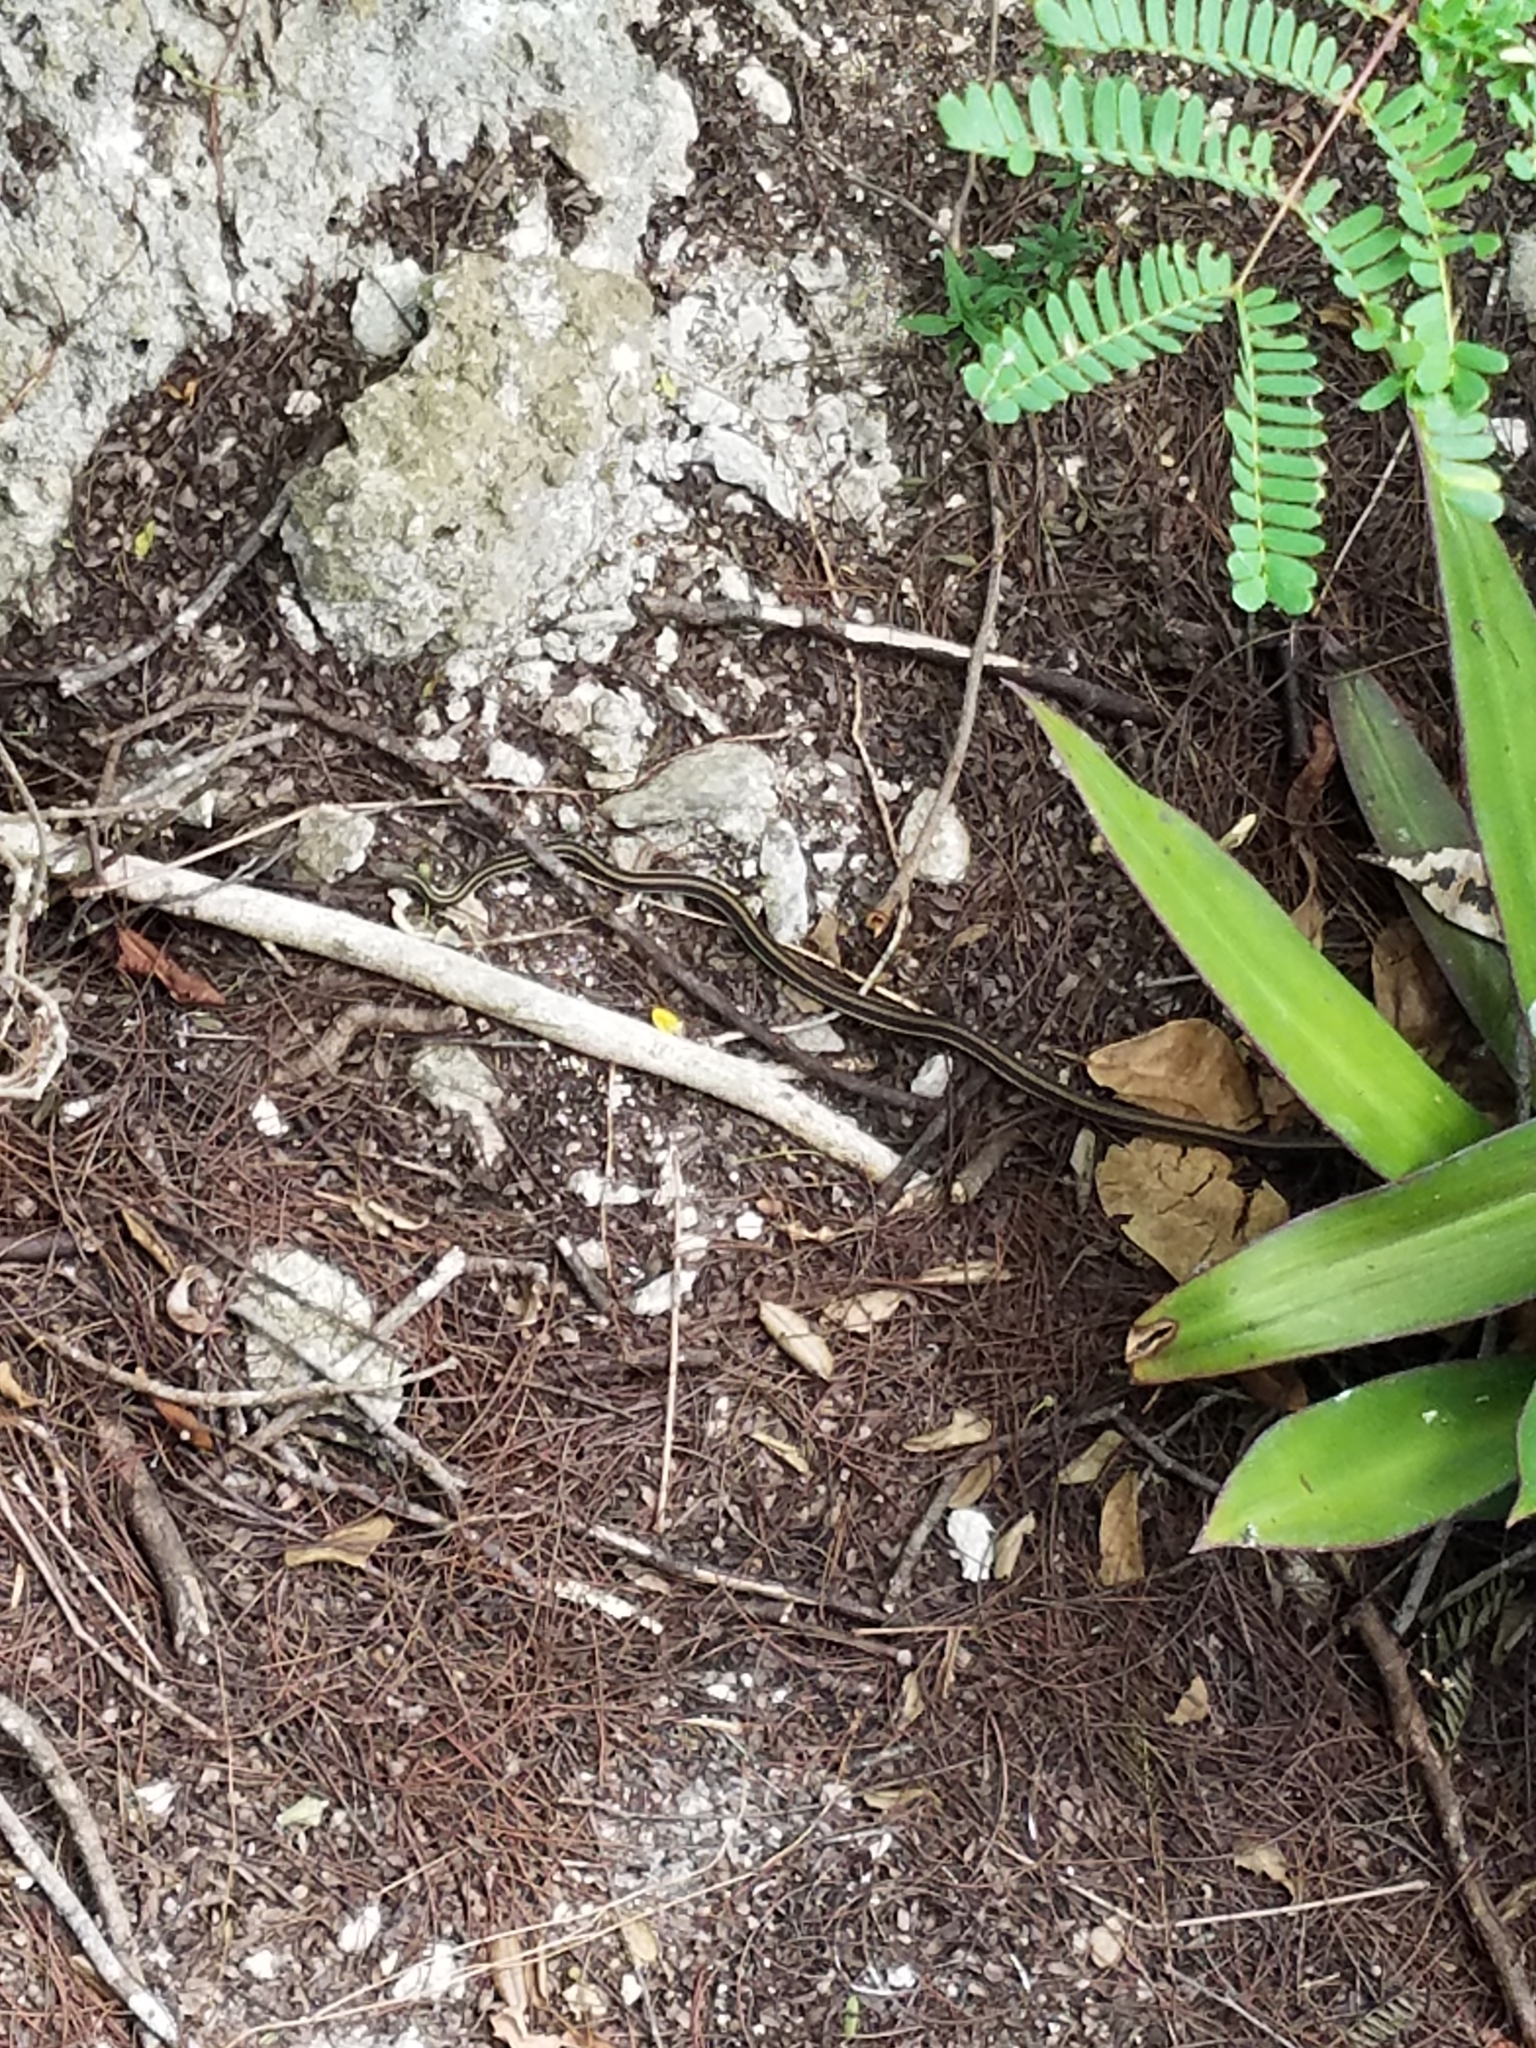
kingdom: Animalia
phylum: Chordata
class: Squamata
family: Colubridae
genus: Thamnophis
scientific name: Thamnophis sirtalis
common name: Common garter snake
